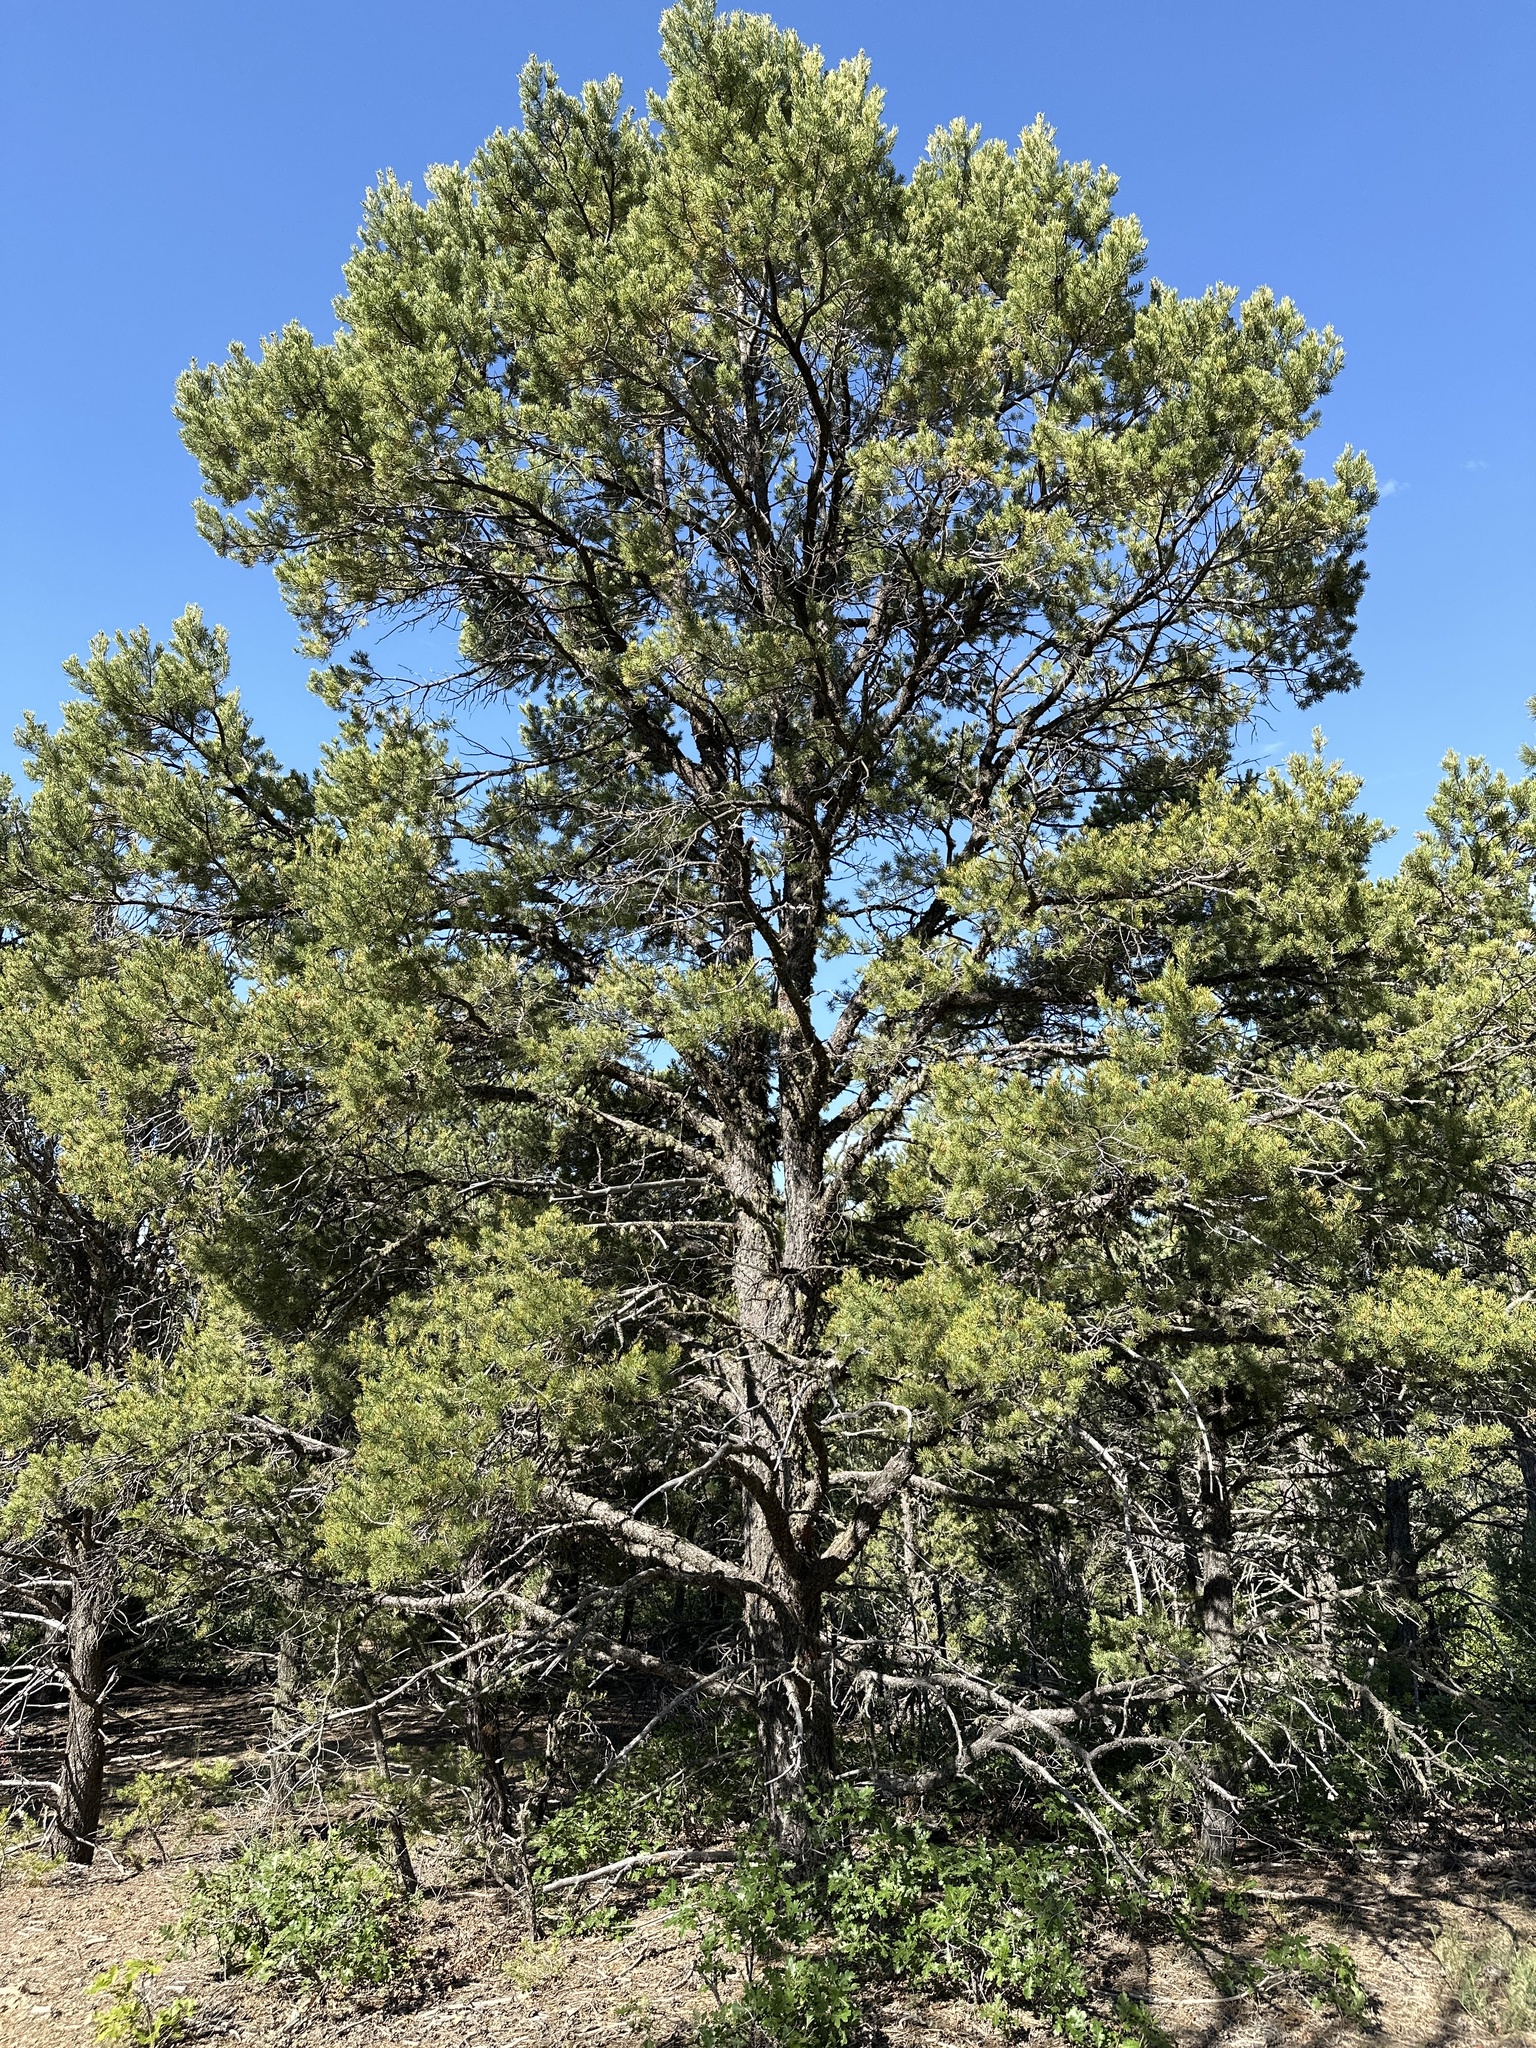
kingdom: Plantae
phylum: Tracheophyta
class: Pinopsida
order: Pinales
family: Pinaceae
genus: Pinus
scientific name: Pinus edulis
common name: Colorado pinyon
